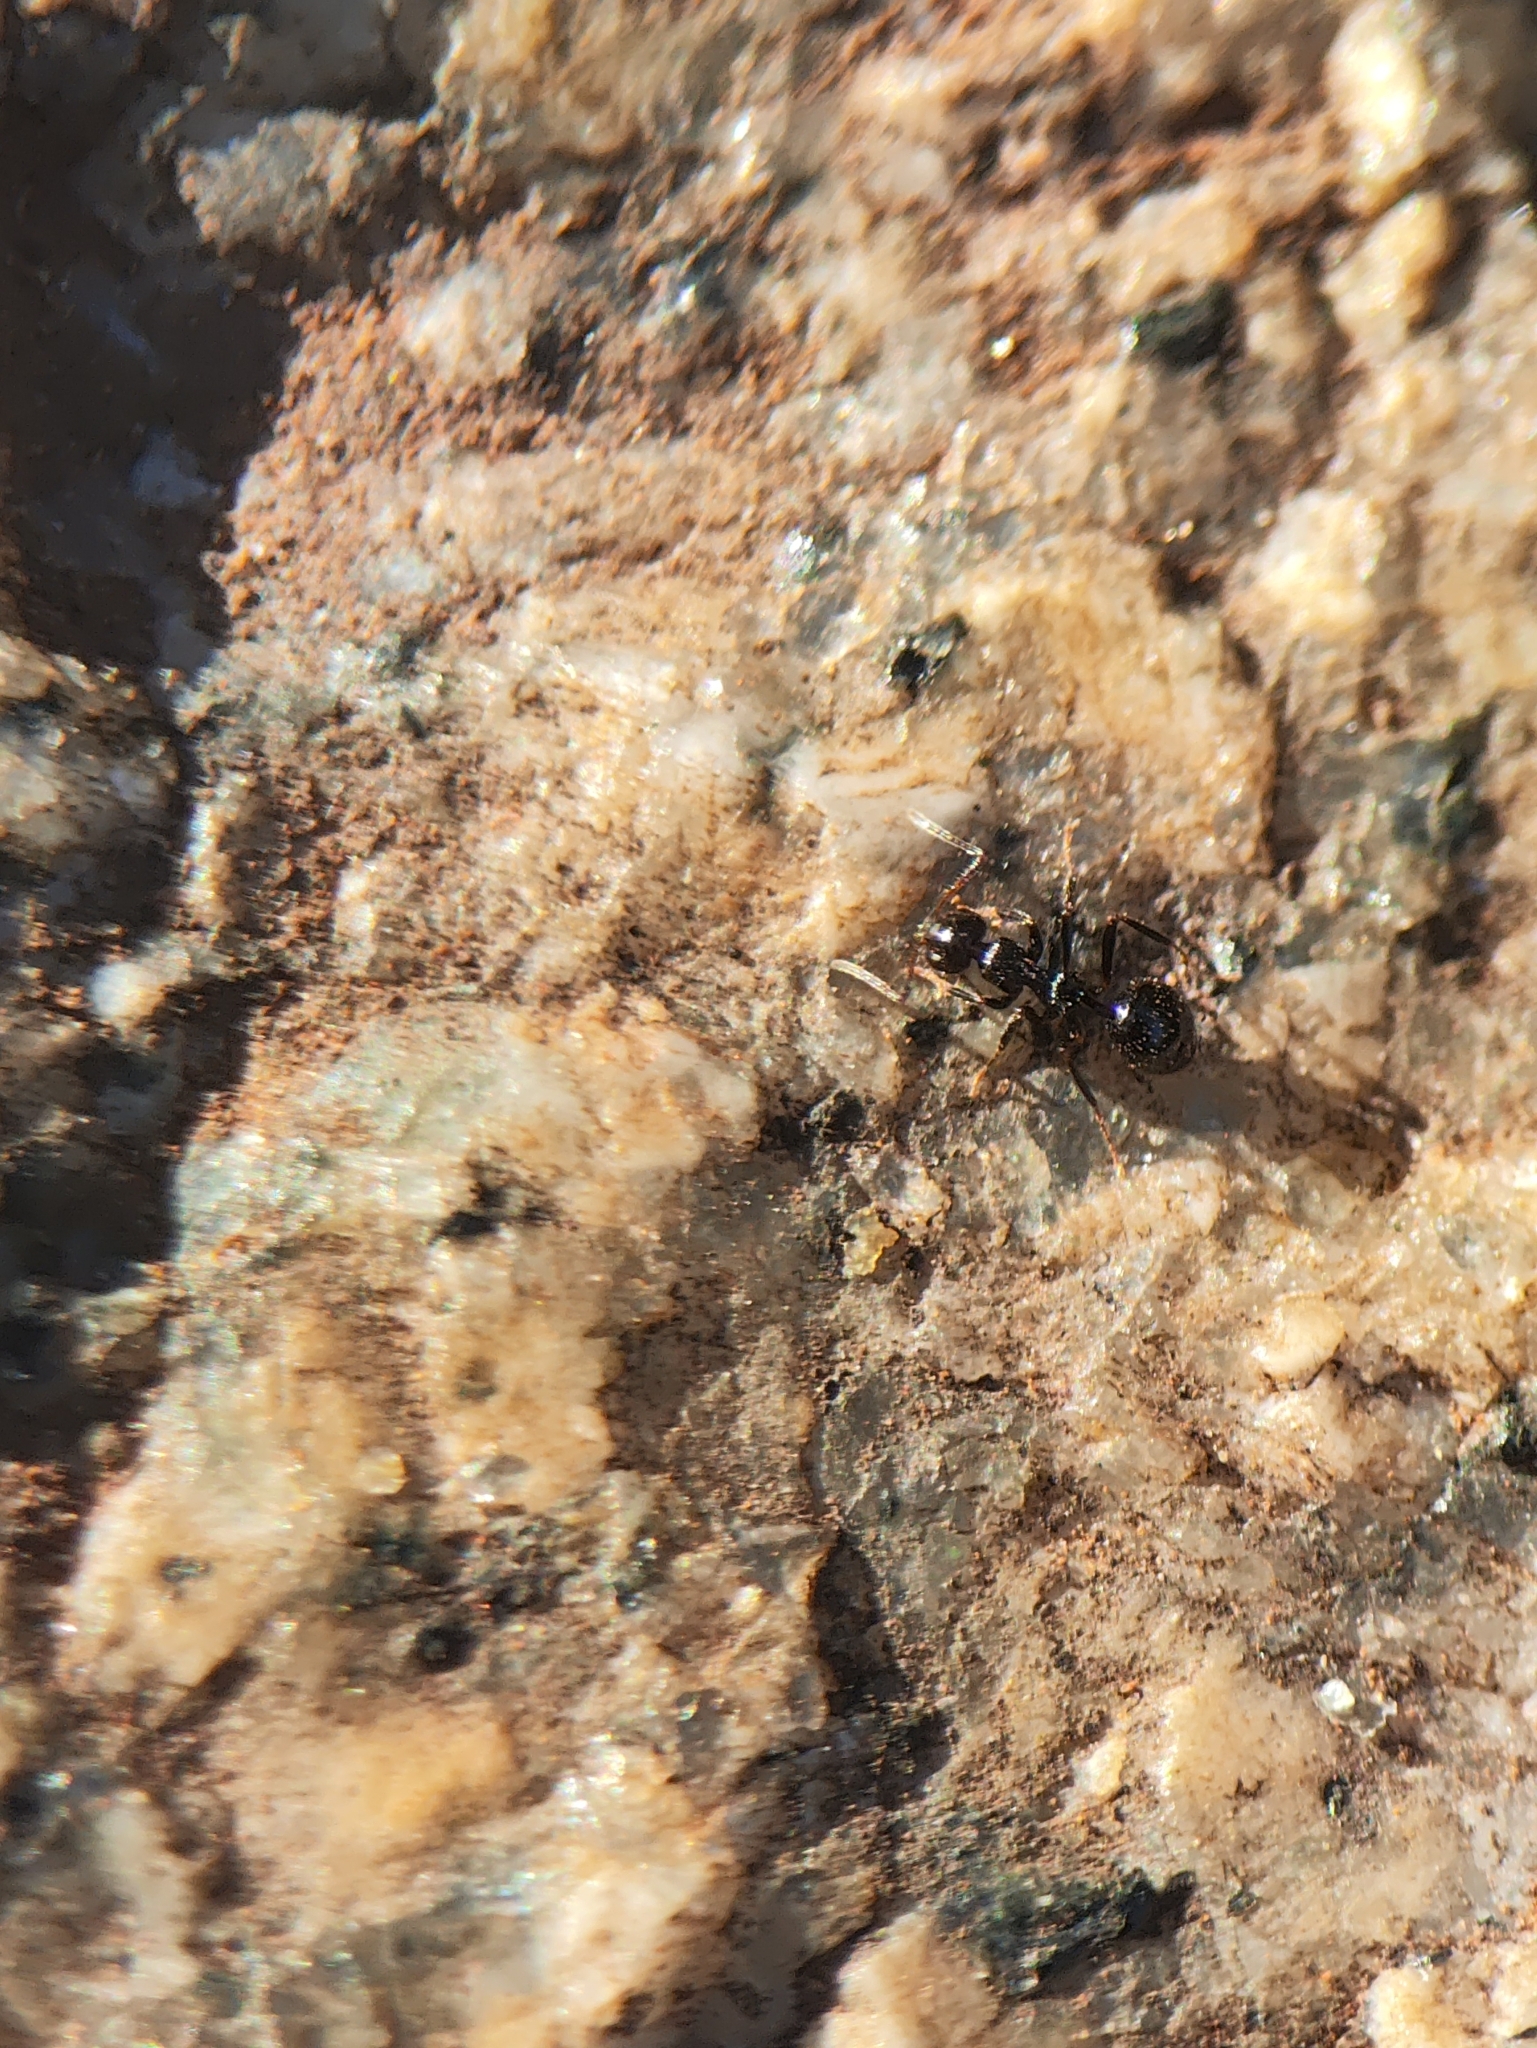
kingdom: Animalia
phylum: Arthropoda
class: Insecta
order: Hymenoptera
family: Formicidae
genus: Lepisiota
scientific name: Lepisiota
